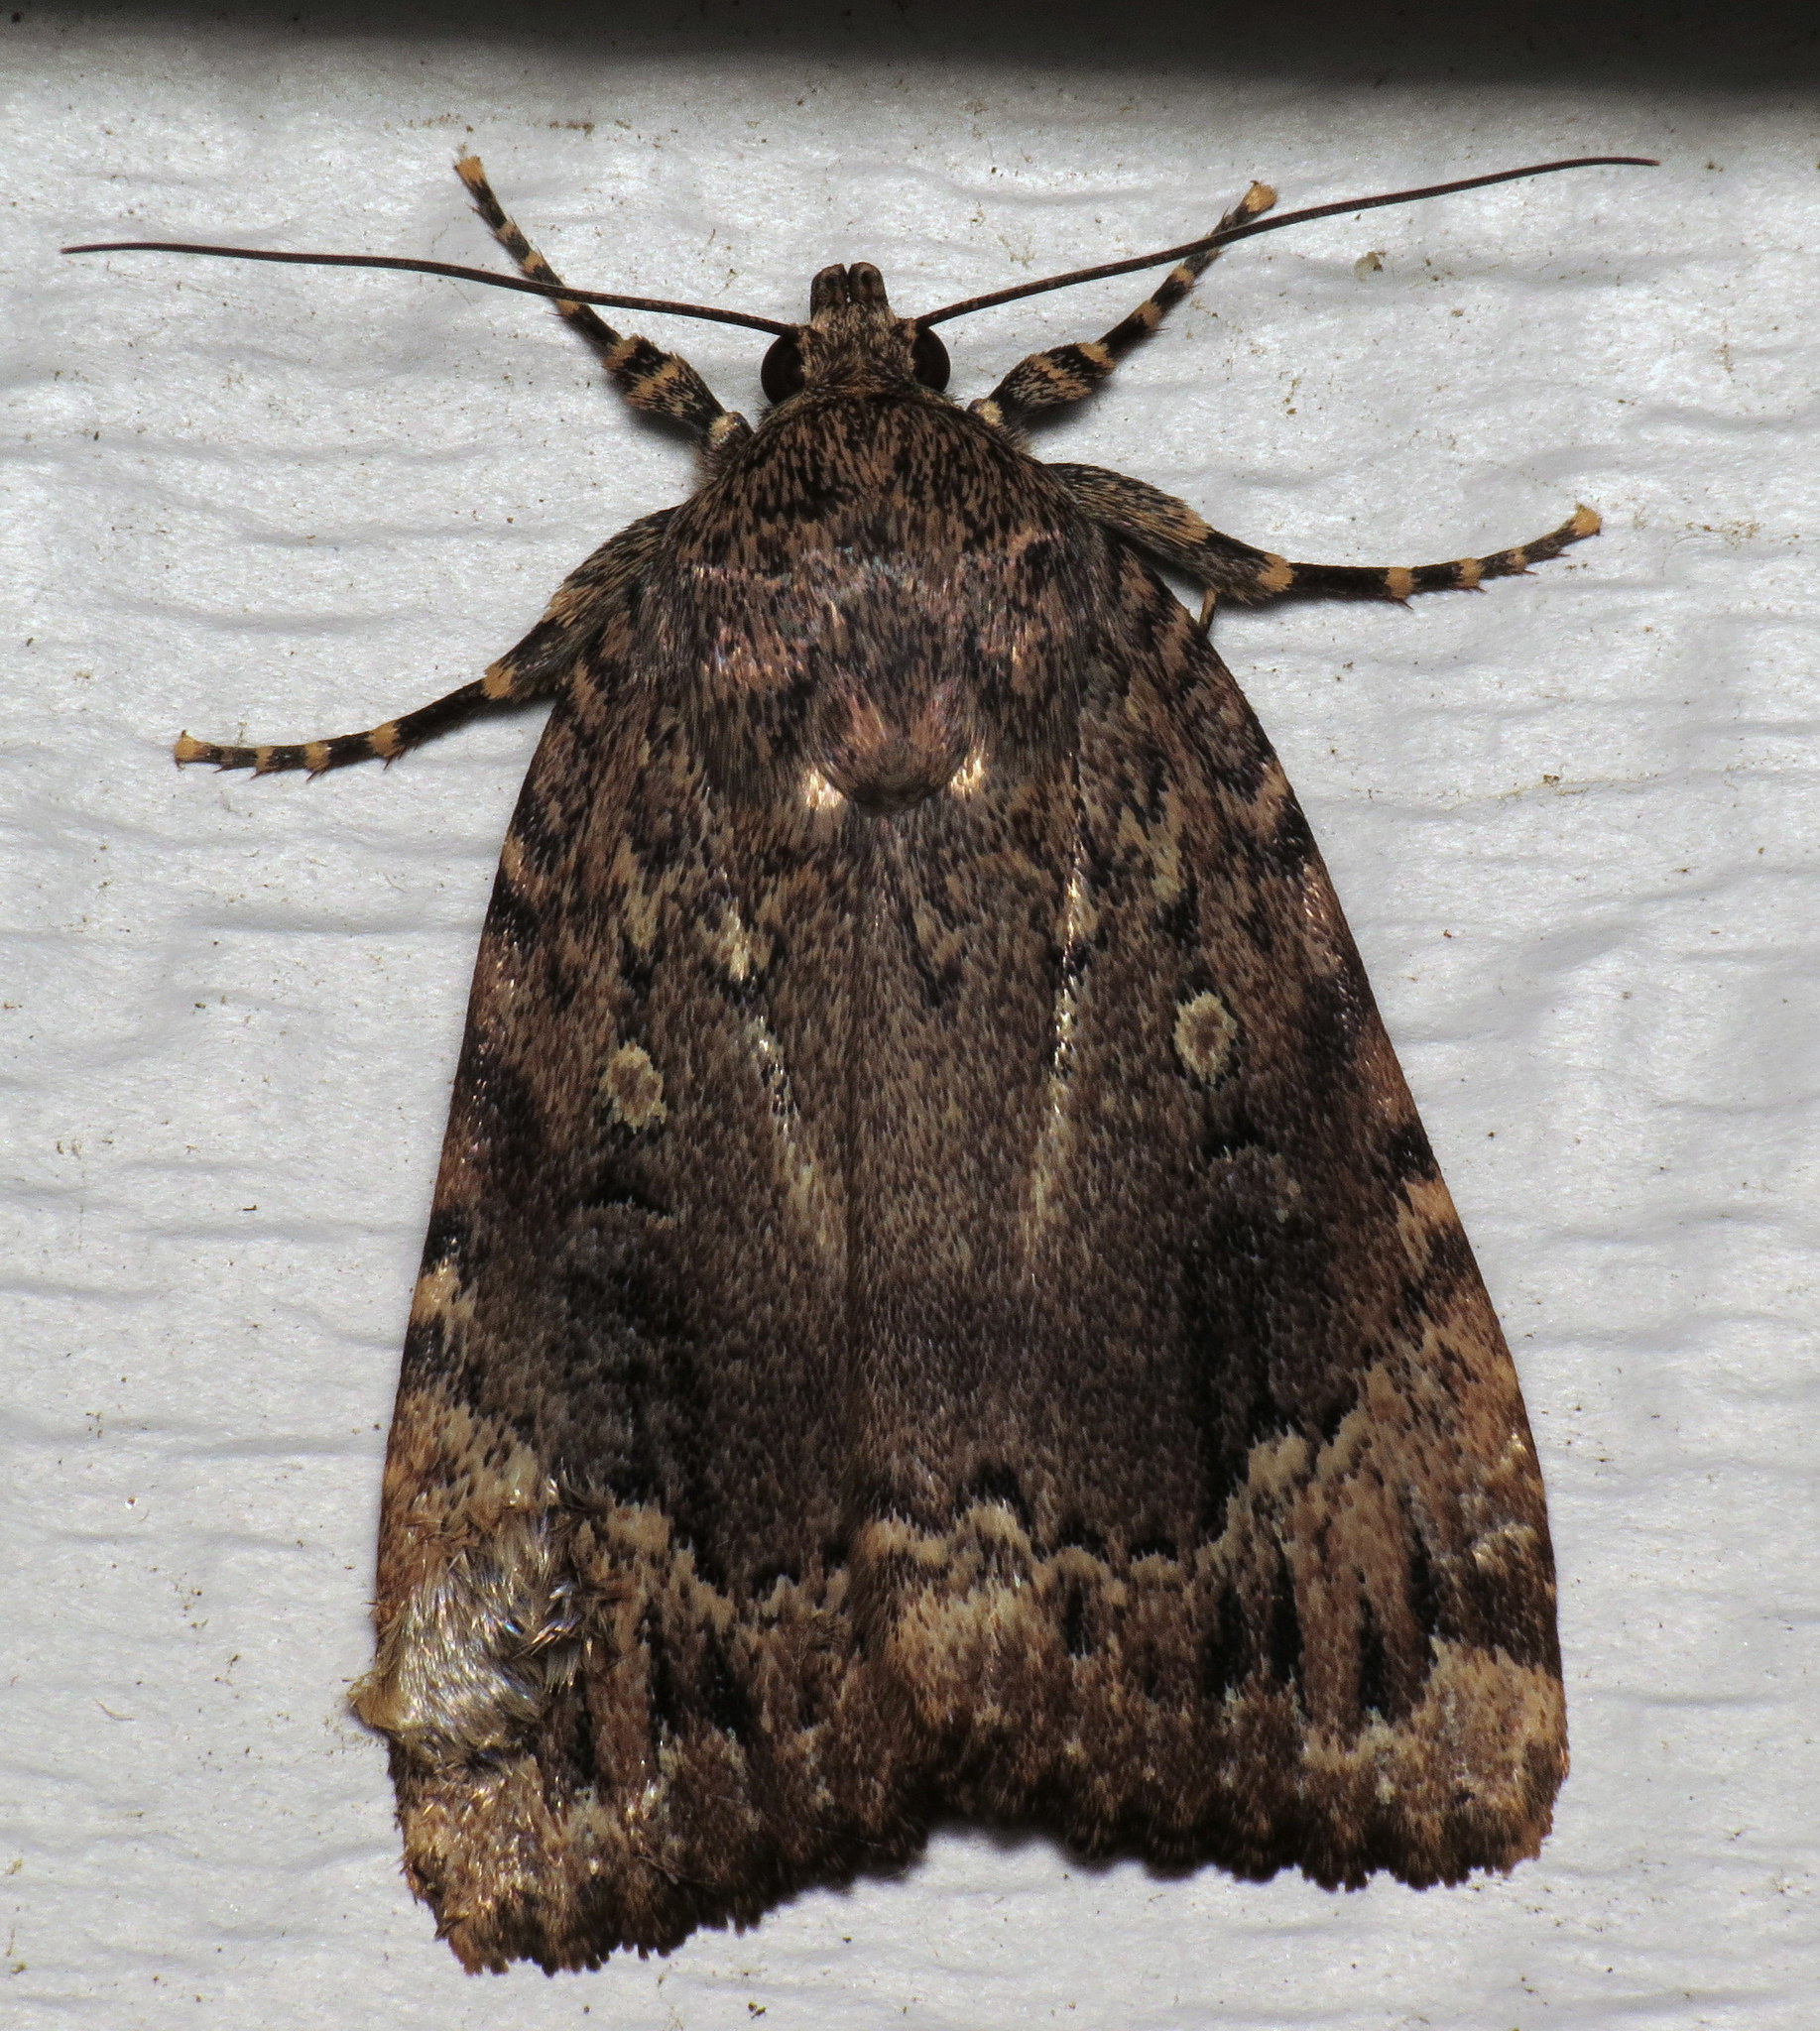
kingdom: Animalia
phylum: Arthropoda
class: Insecta
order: Lepidoptera
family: Noctuidae
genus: Amphipyra
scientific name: Amphipyra pyramidoides
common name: American copper underwing
